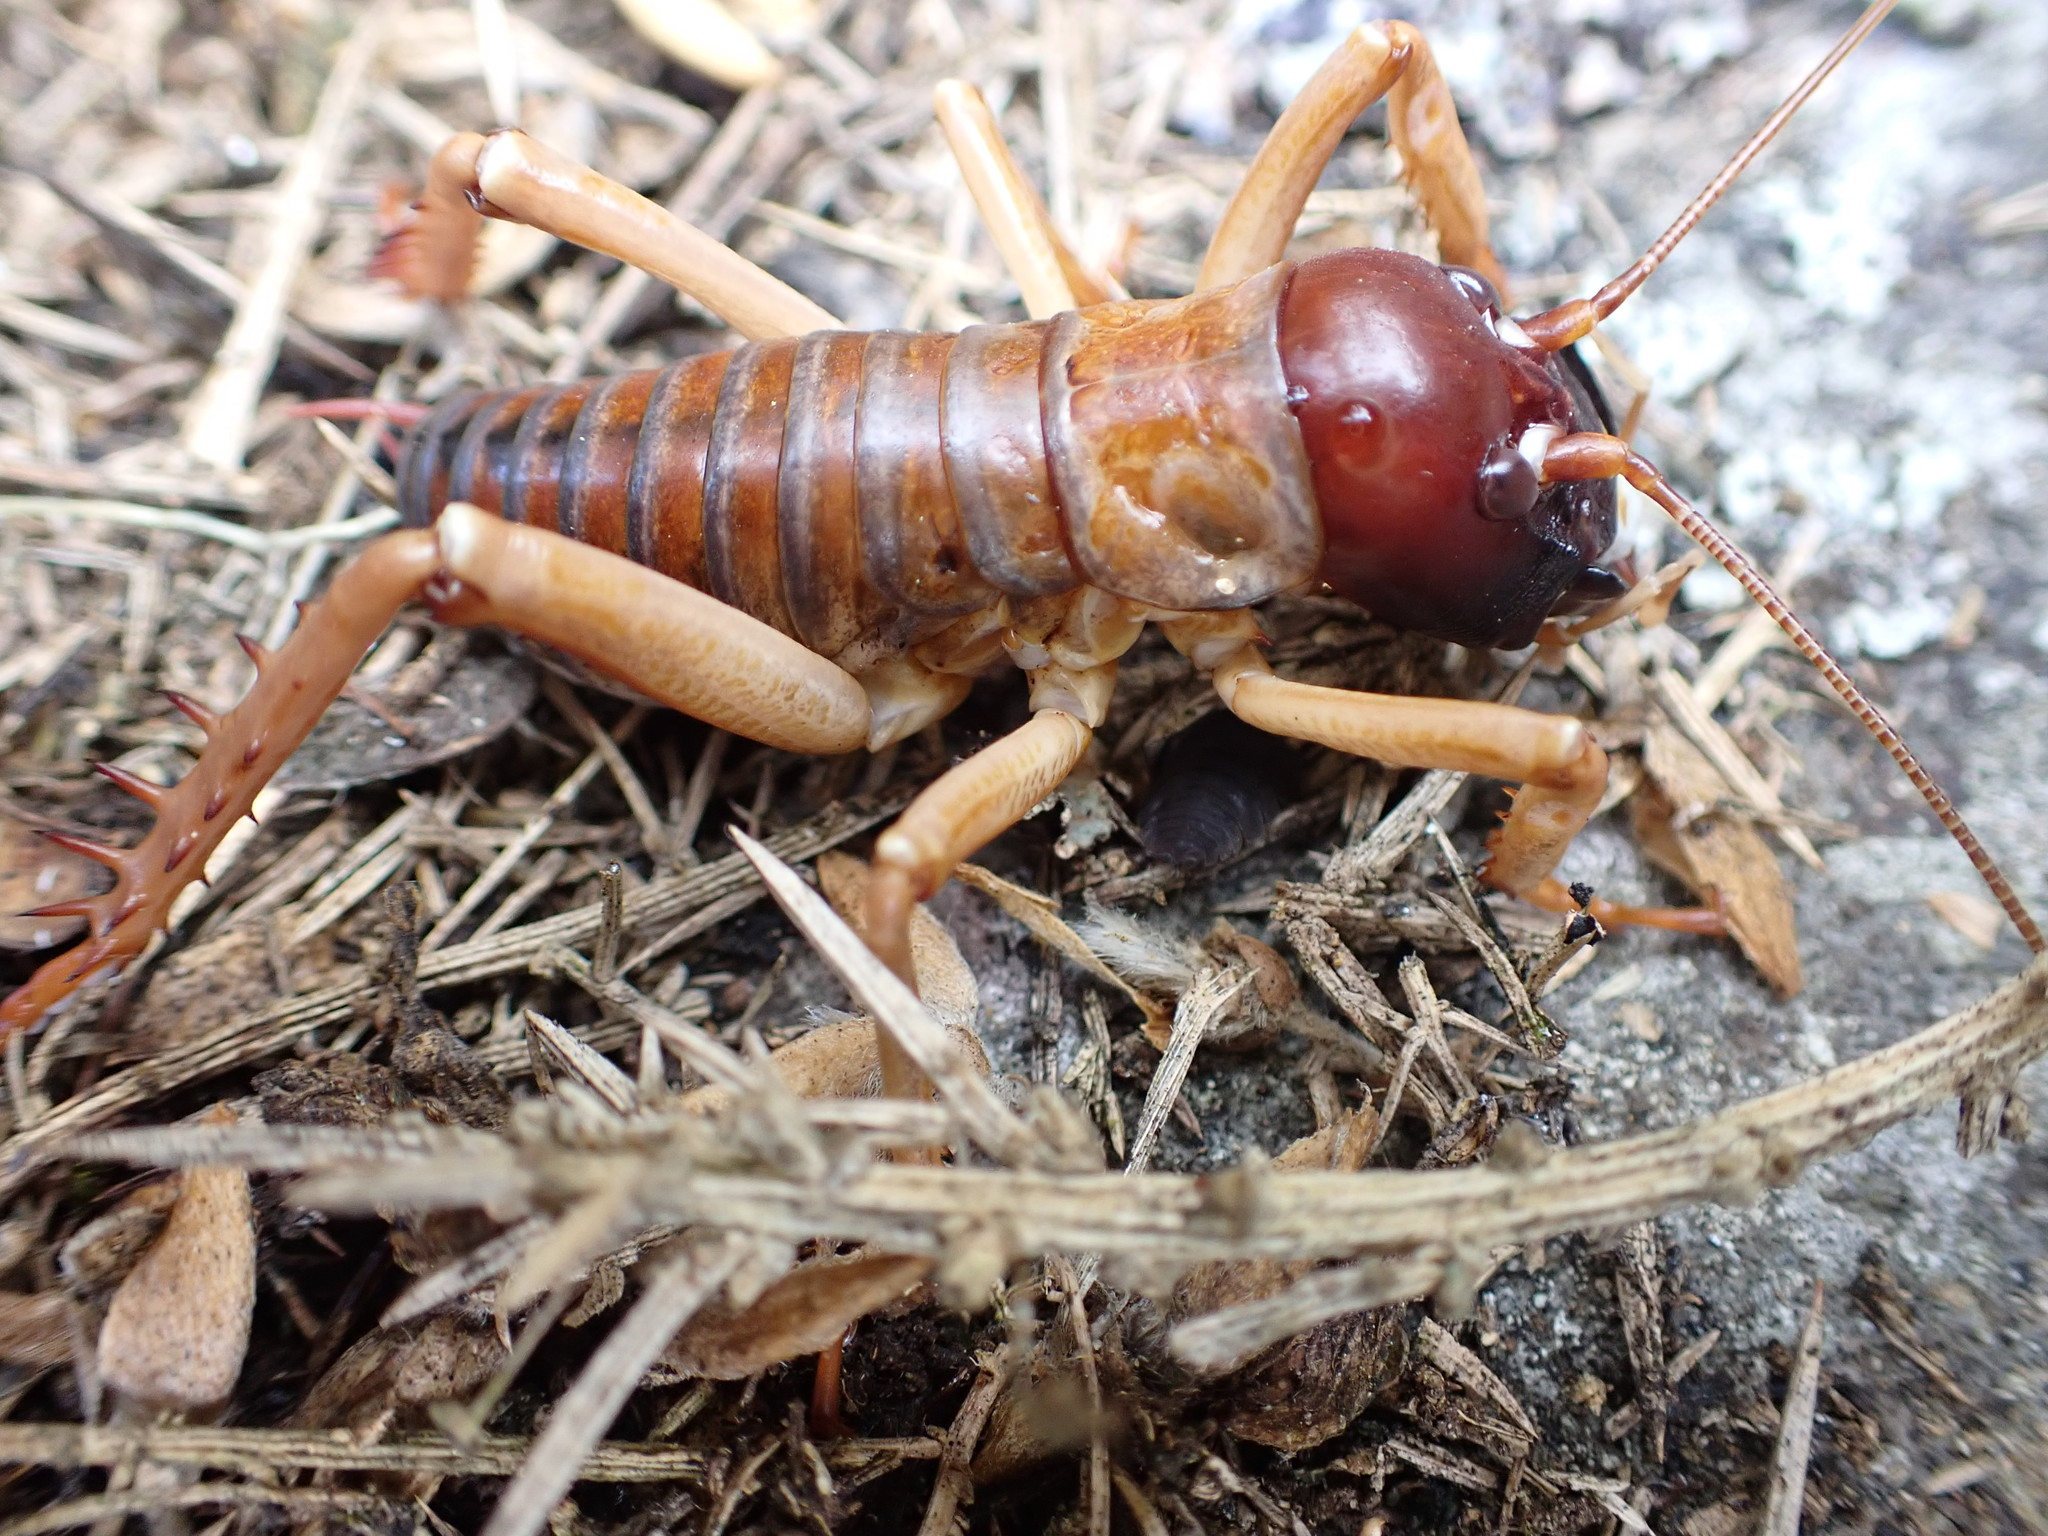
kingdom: Animalia
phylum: Arthropoda
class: Insecta
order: Orthoptera
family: Anostostomatidae
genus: Hemideina
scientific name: Hemideina ricta
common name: Banks peninsula tree weta
